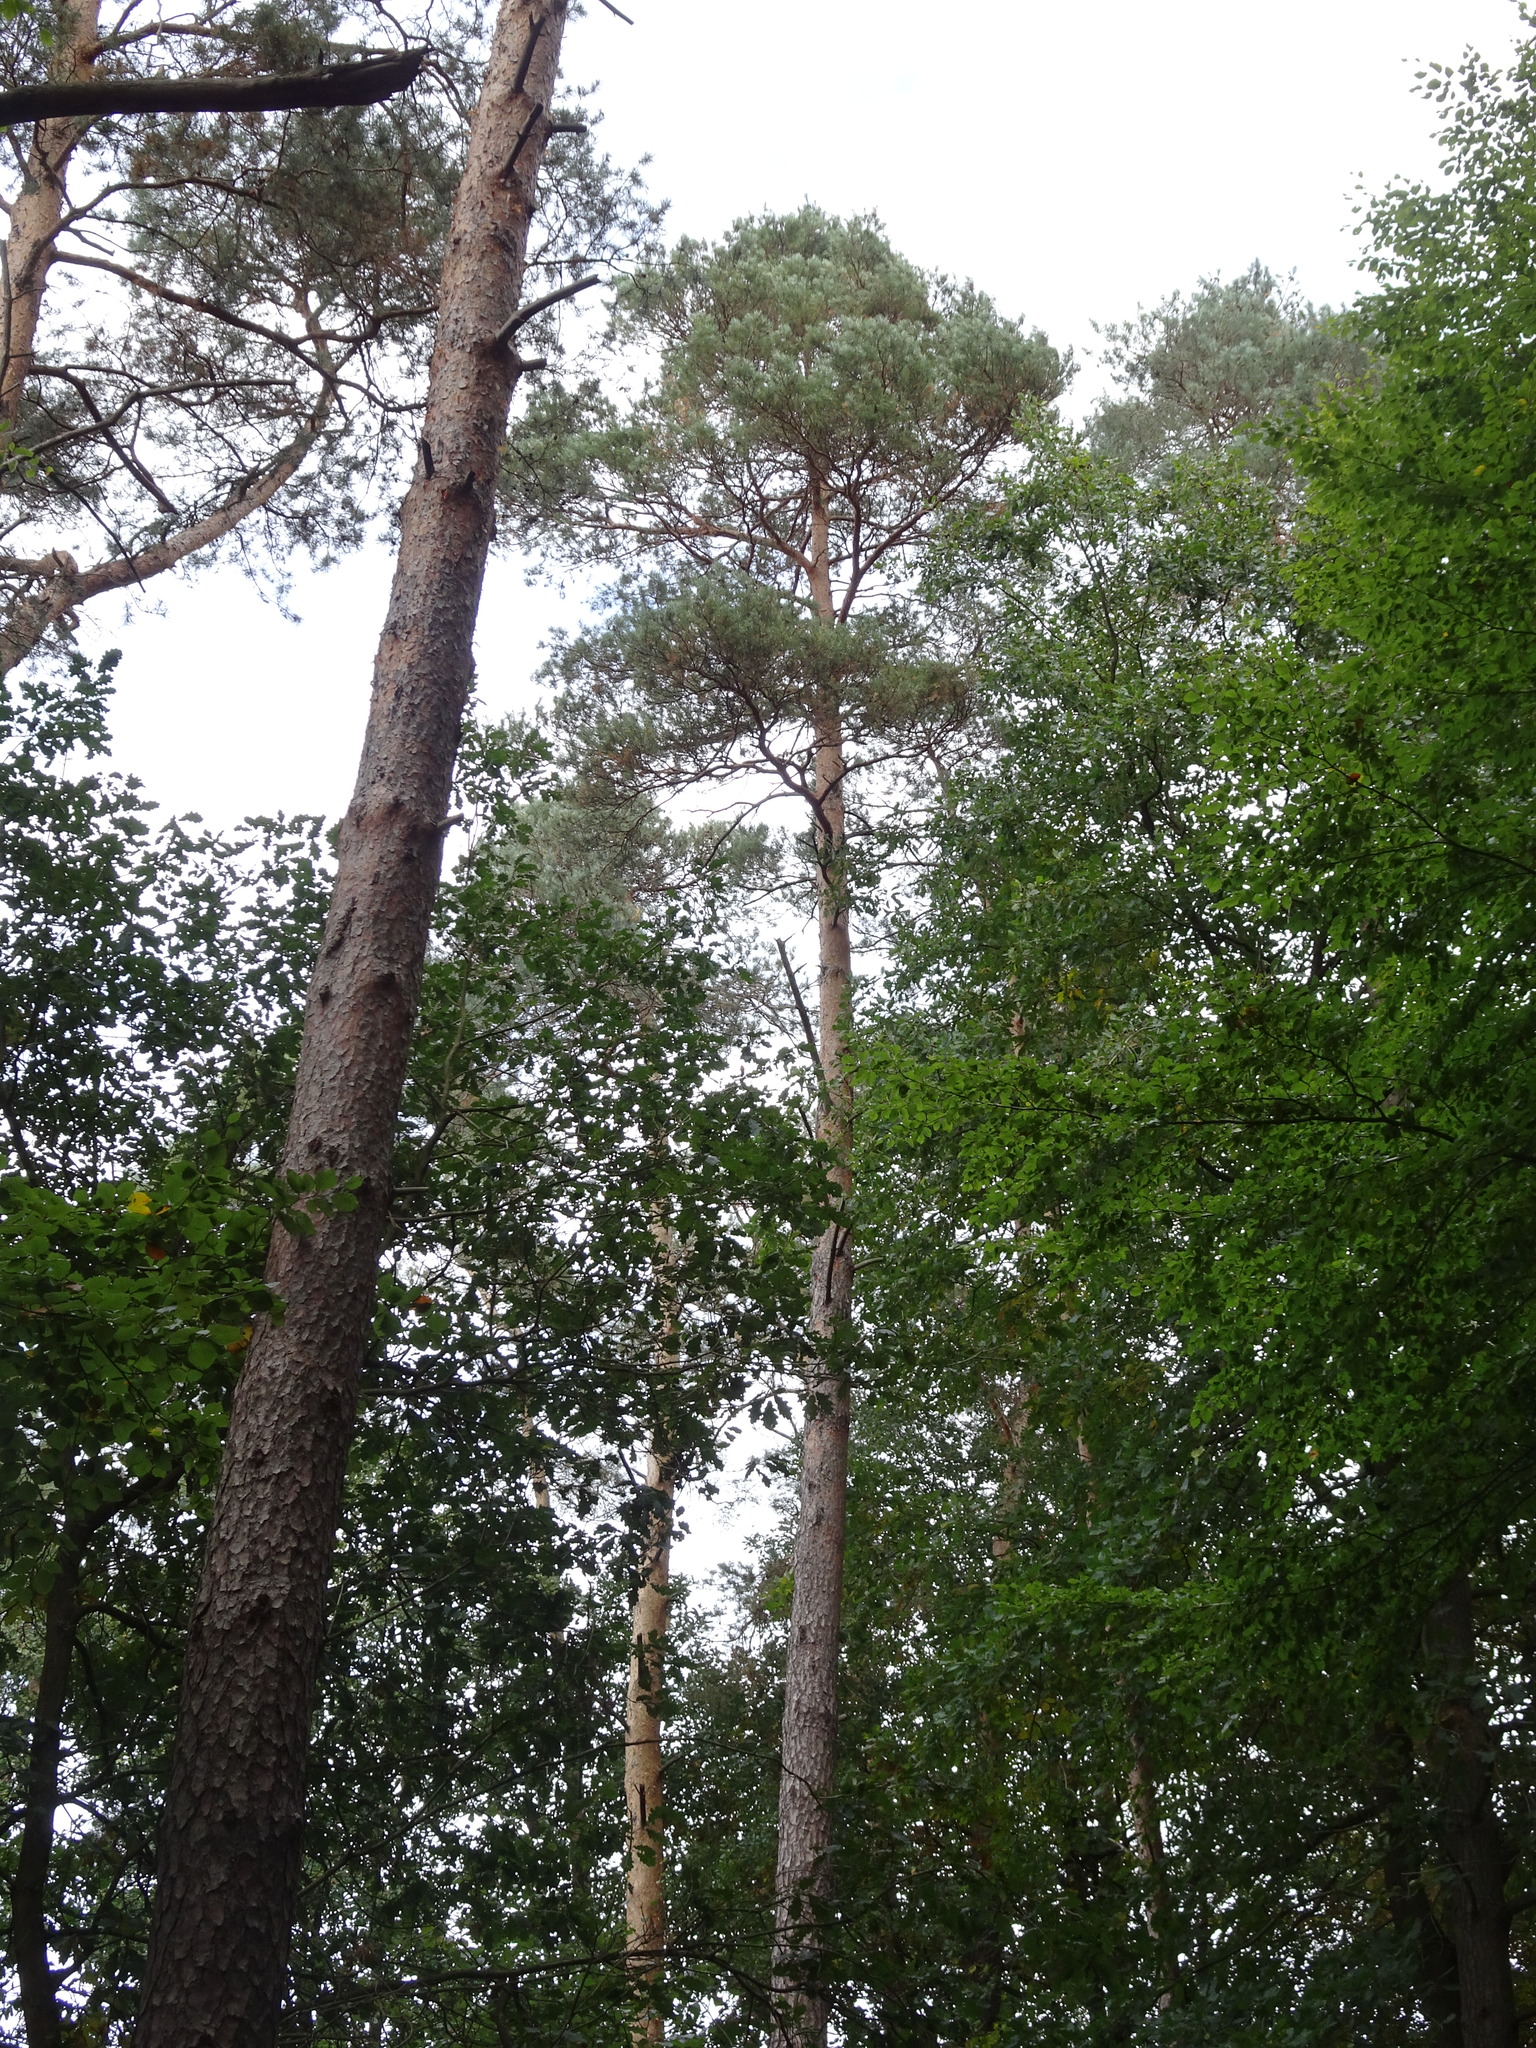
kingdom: Plantae
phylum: Tracheophyta
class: Pinopsida
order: Pinales
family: Pinaceae
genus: Pinus
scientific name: Pinus sylvestris
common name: Scots pine
